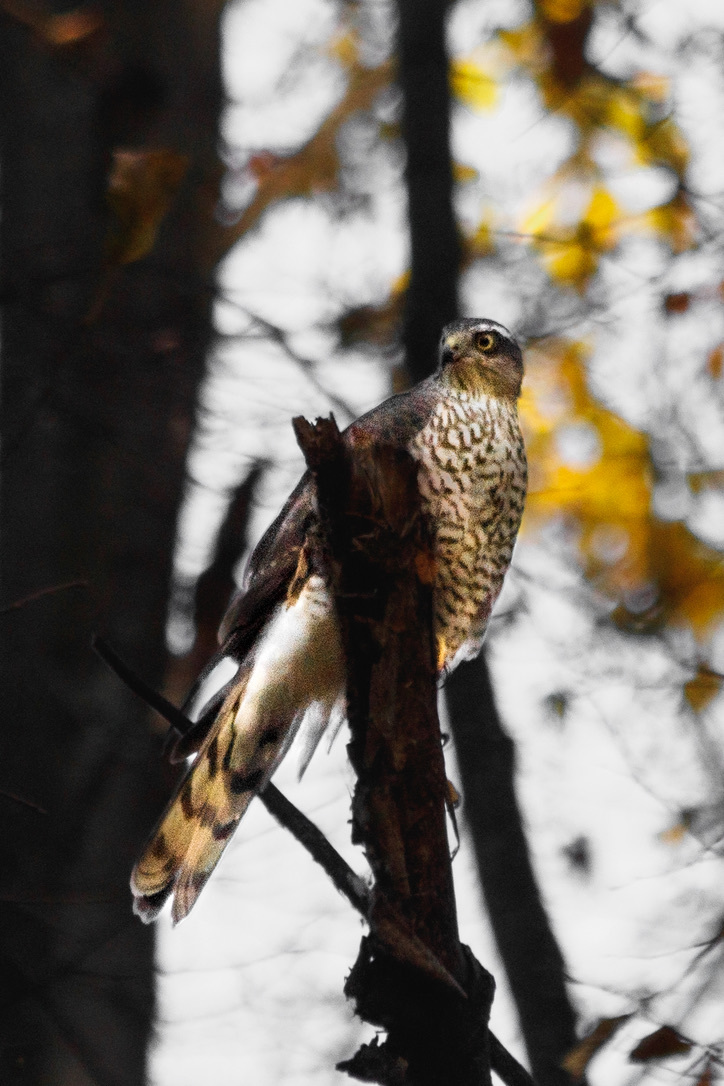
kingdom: Animalia
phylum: Chordata
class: Aves
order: Accipitriformes
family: Accipitridae
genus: Accipiter
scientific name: Accipiter nisus
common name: Eurasian sparrowhawk
